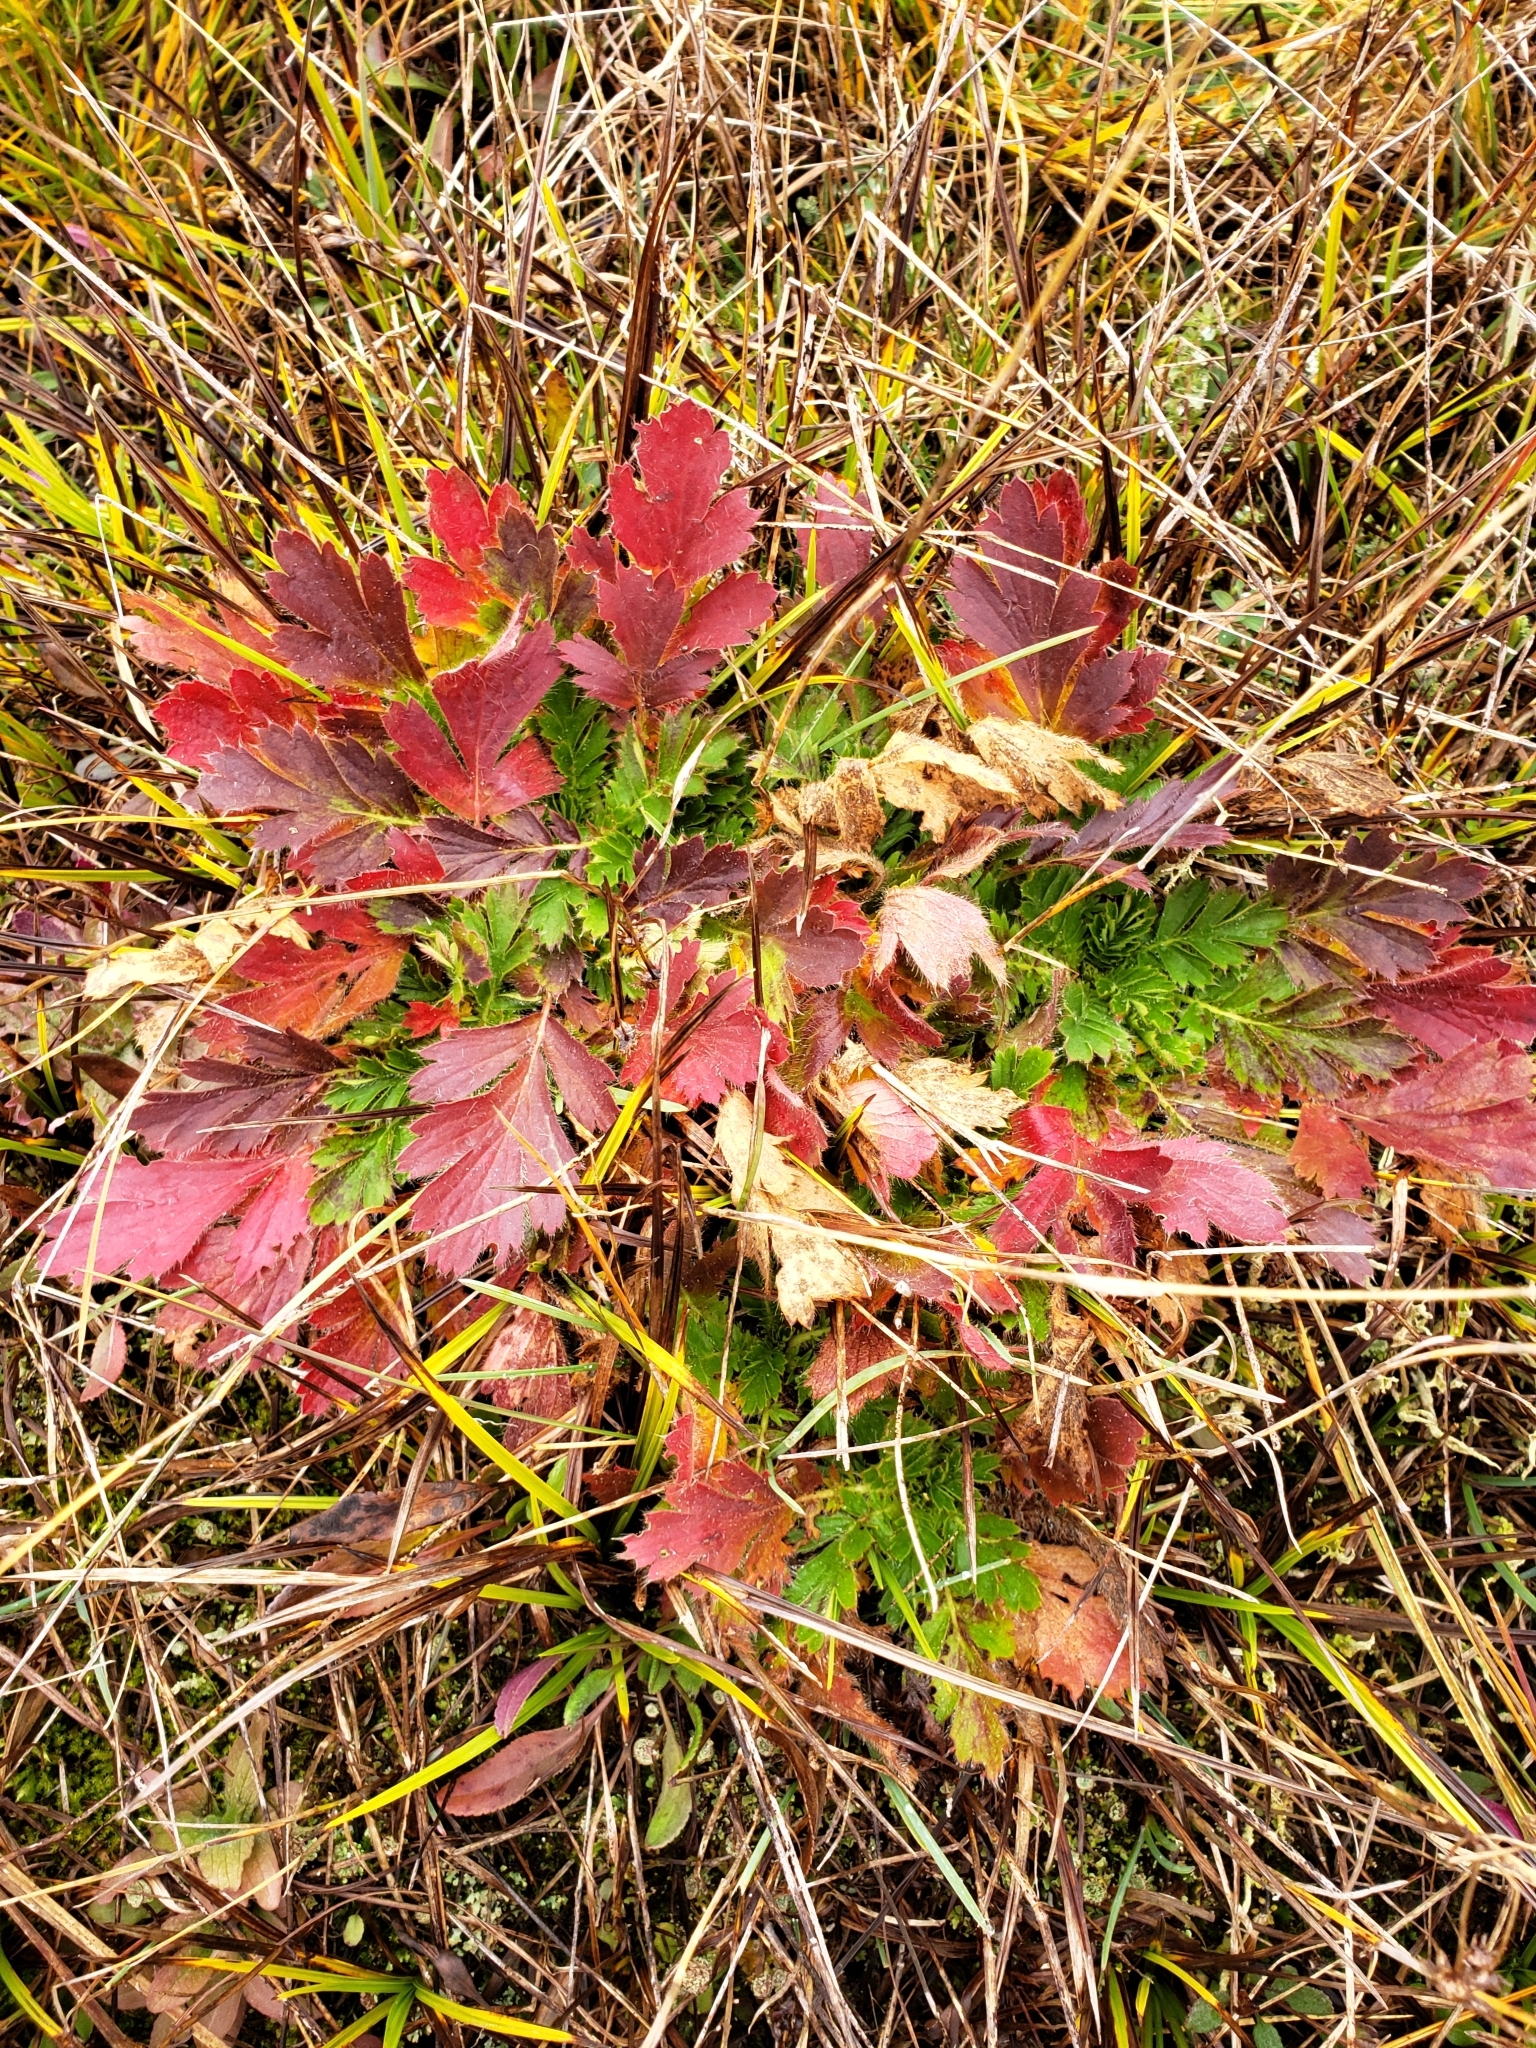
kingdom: Plantae
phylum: Tracheophyta
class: Magnoliopsida
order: Rosales
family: Rosaceae
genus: Geum
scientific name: Geum triflorum
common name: Old man's whiskers
